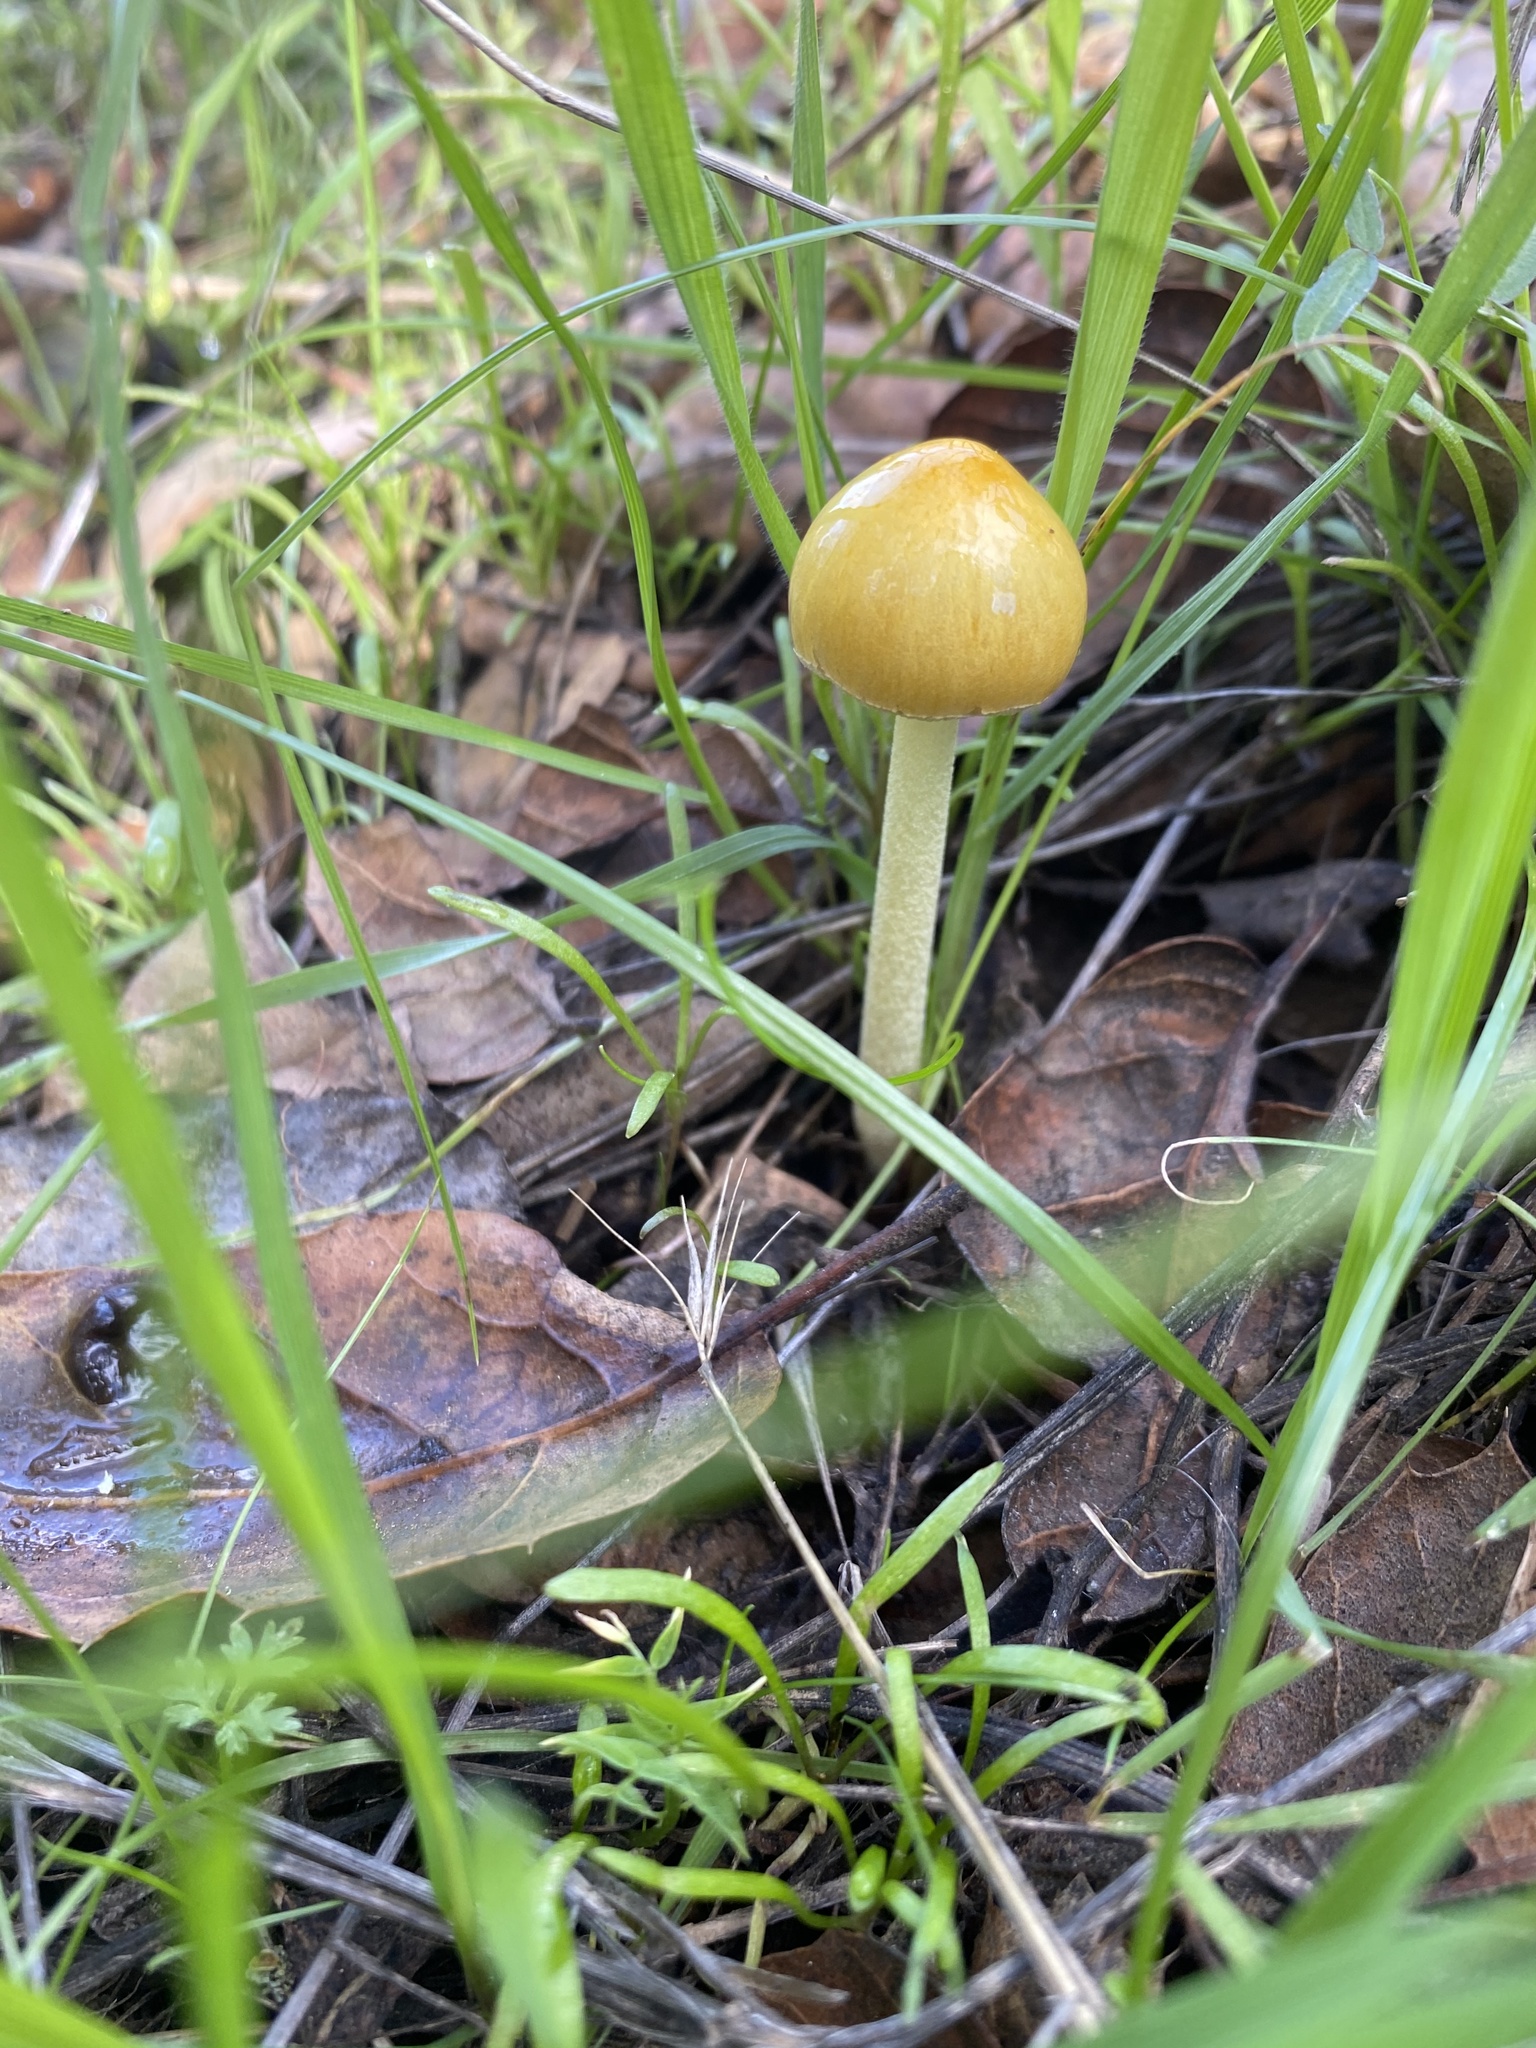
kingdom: Fungi
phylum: Basidiomycota
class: Agaricomycetes
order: Agaricales
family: Bolbitiaceae
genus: Bolbitius
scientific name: Bolbitius titubans
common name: Yellow fieldcap
